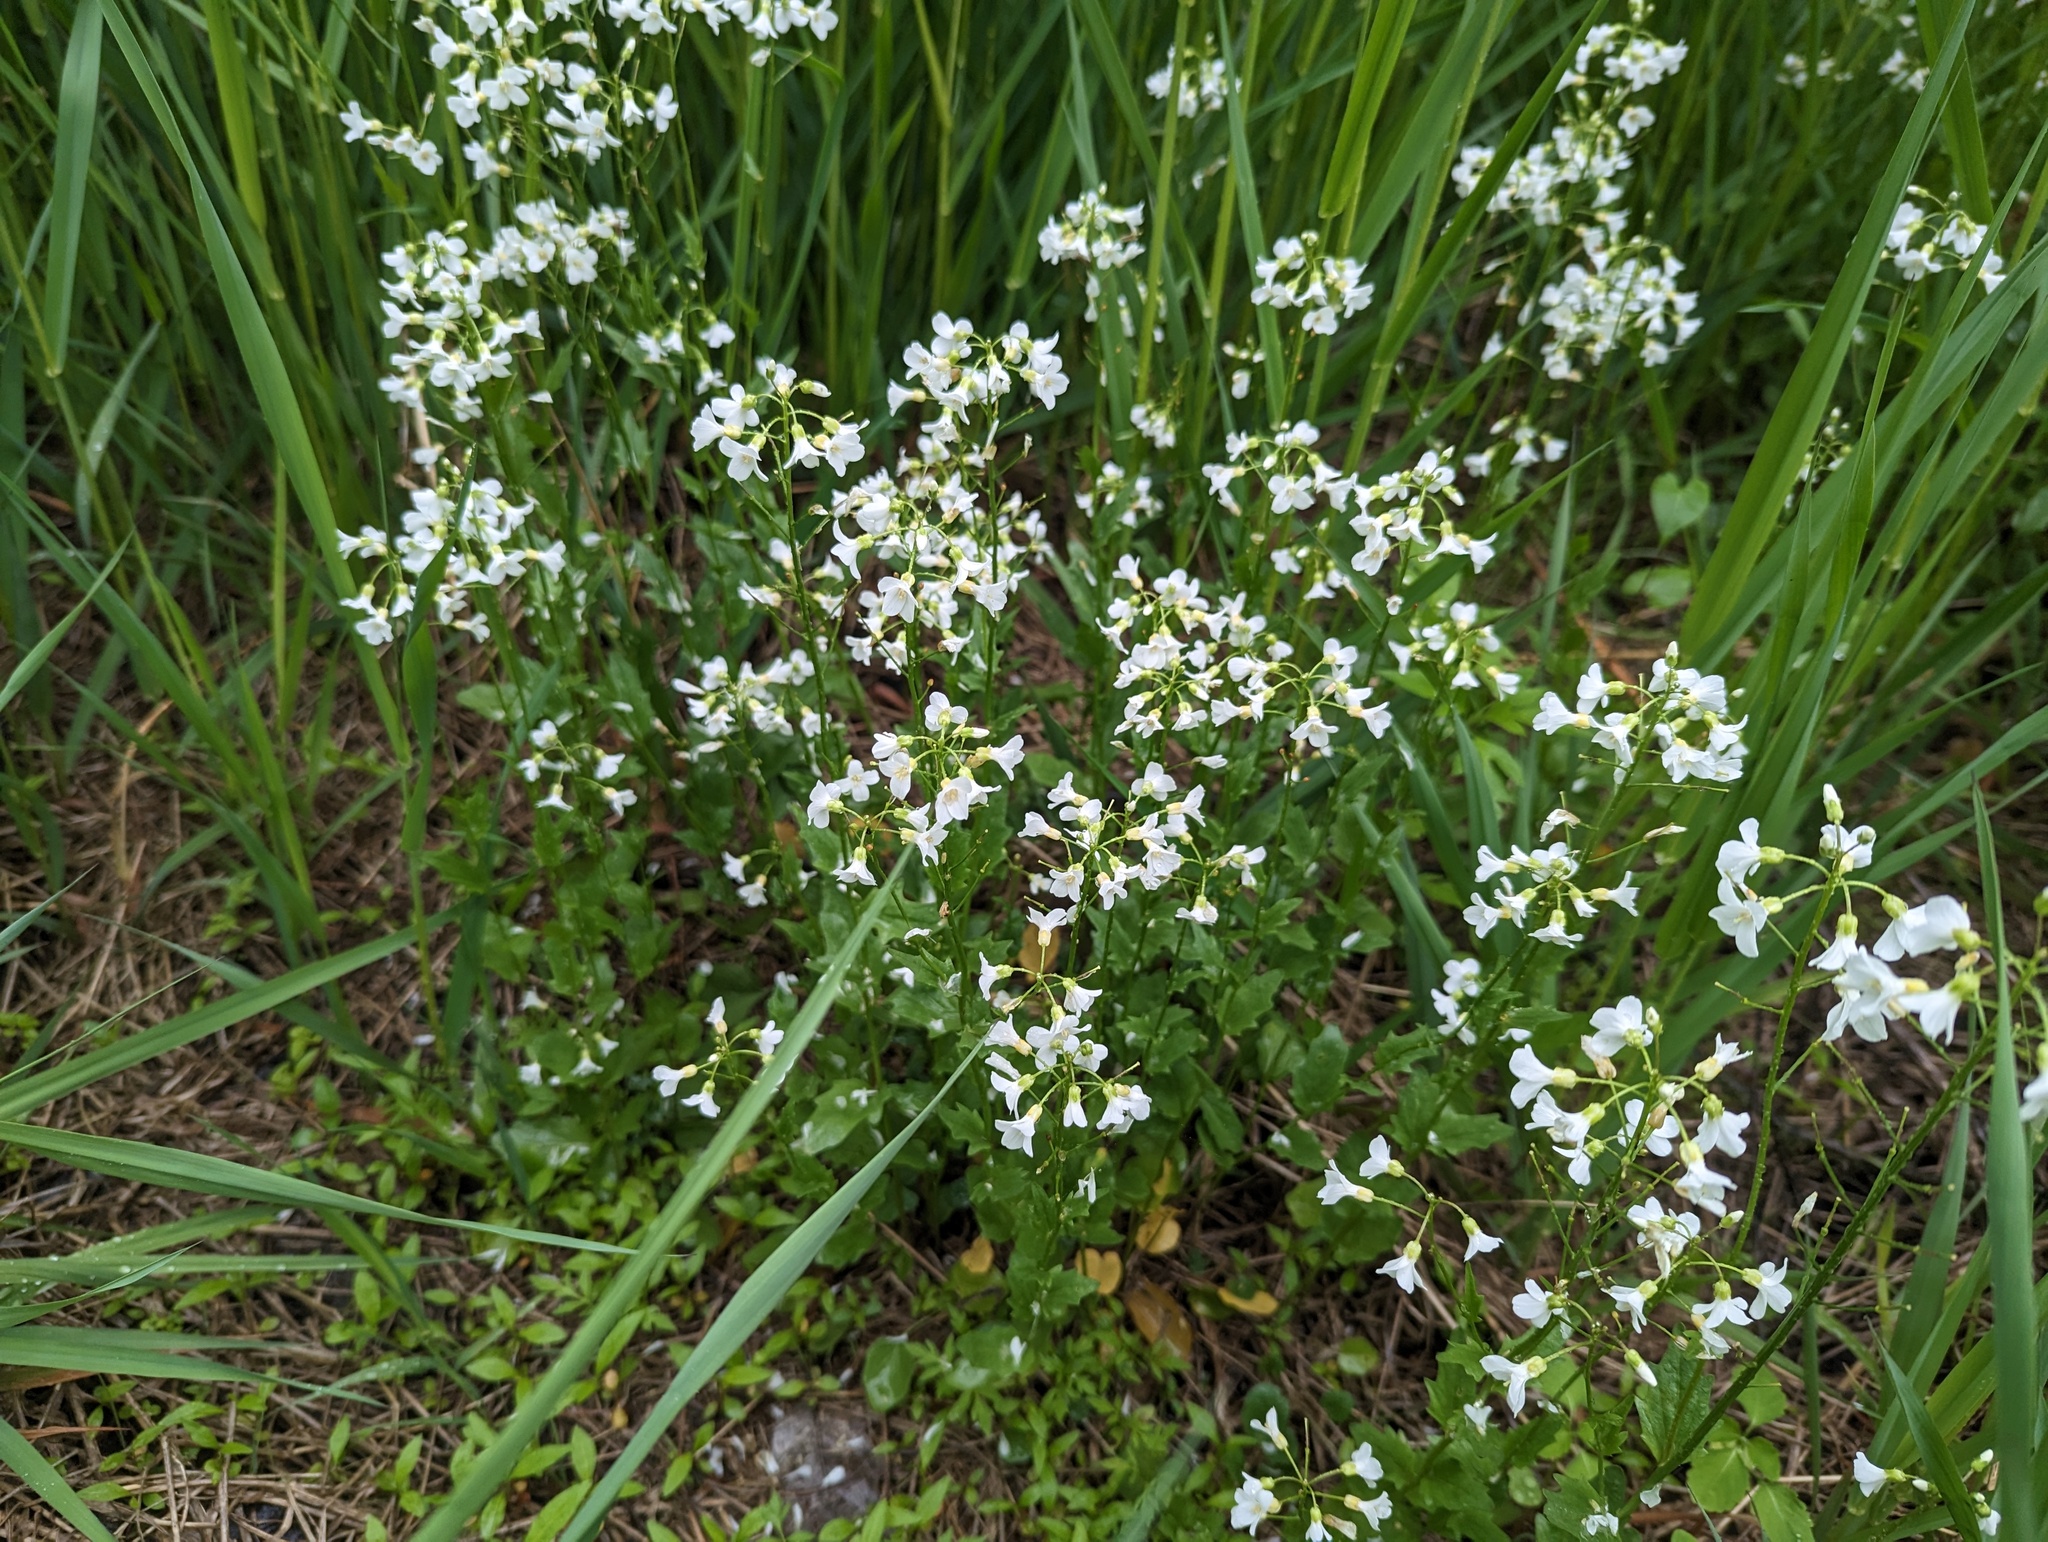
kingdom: Plantae
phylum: Tracheophyta
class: Magnoliopsida
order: Brassicales
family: Brassicaceae
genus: Cardamine
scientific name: Cardamine bulbosa
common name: Spring cress
